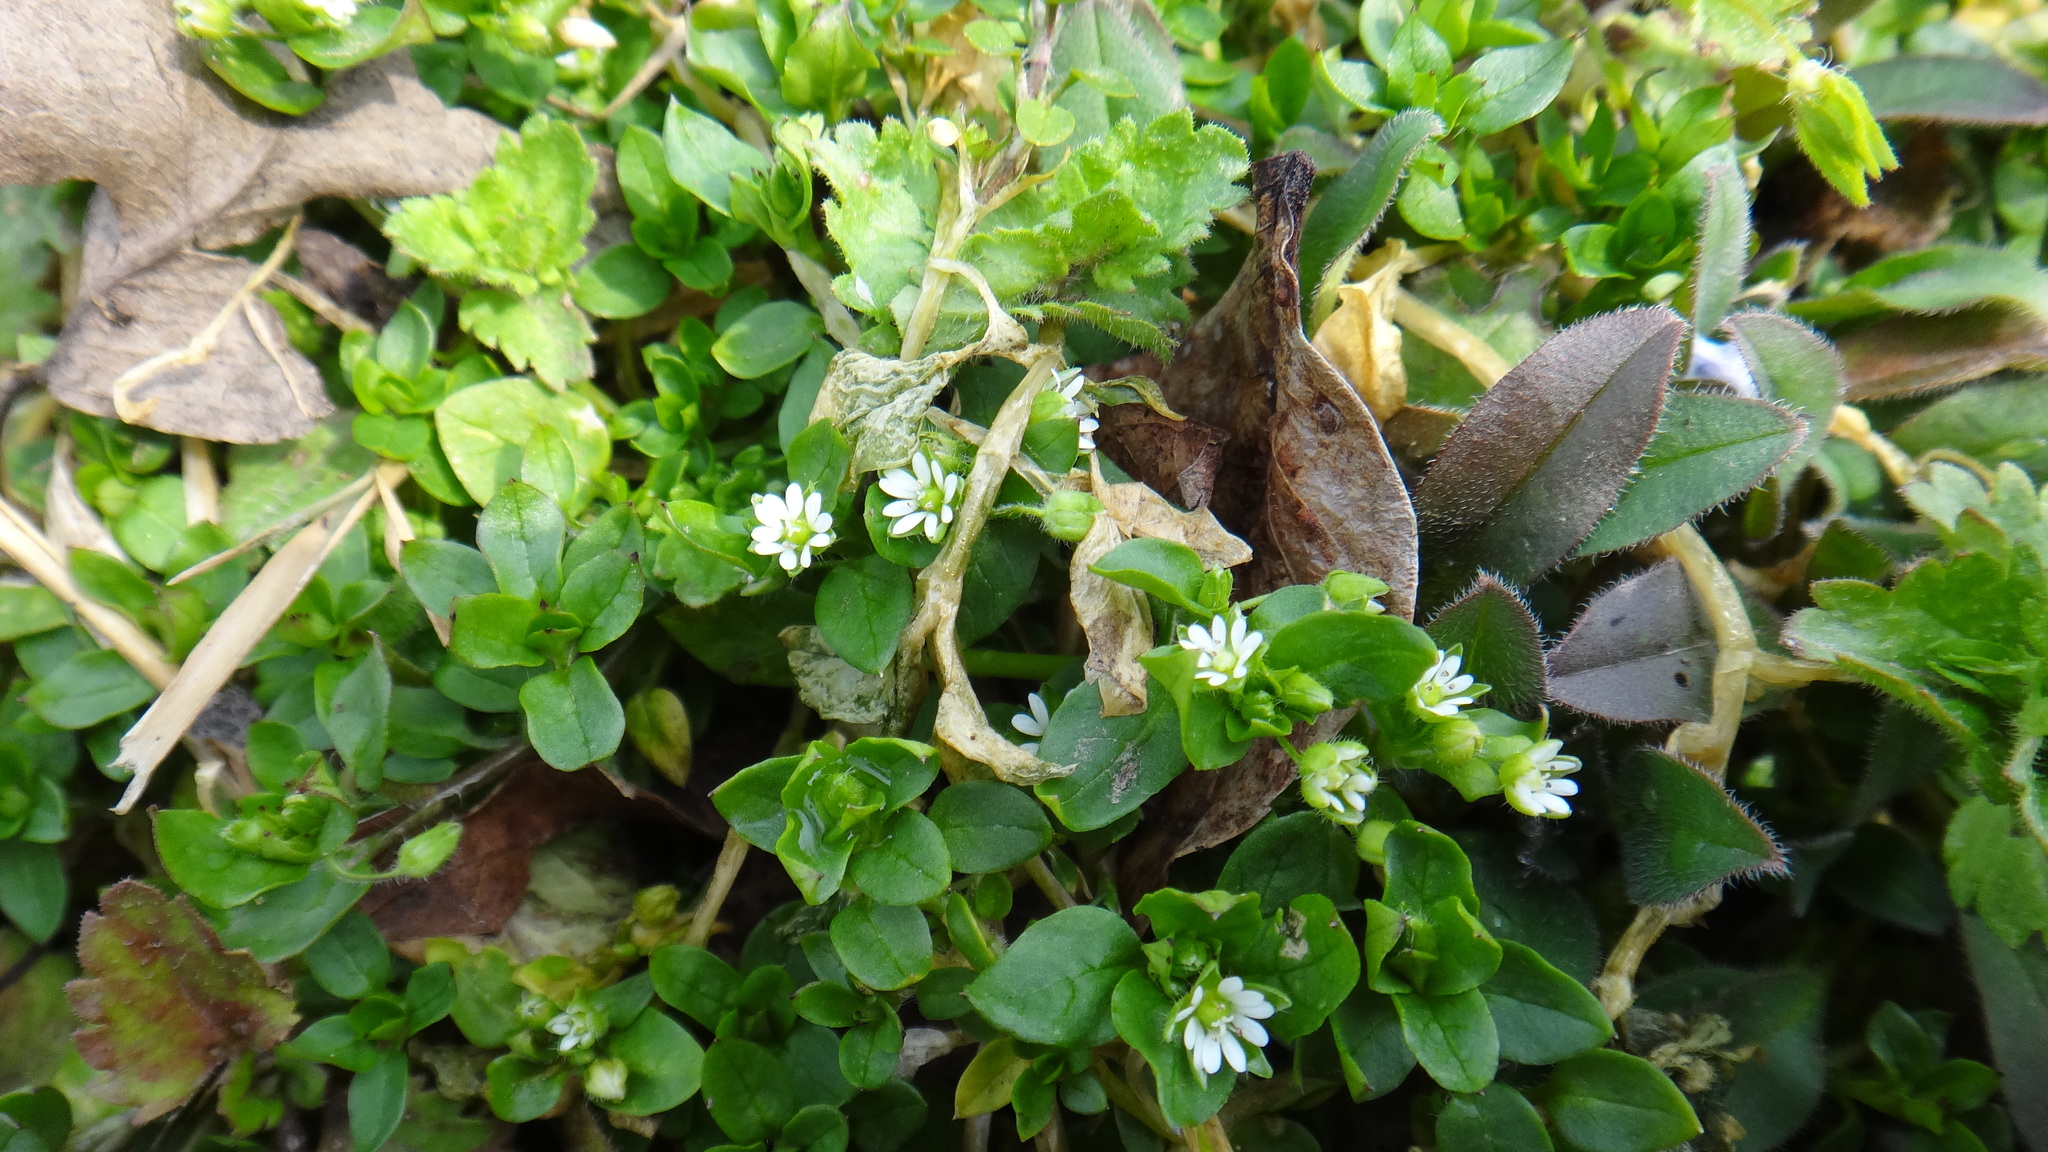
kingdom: Plantae
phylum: Tracheophyta
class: Magnoliopsida
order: Caryophyllales
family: Caryophyllaceae
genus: Stellaria
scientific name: Stellaria media
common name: Common chickweed
